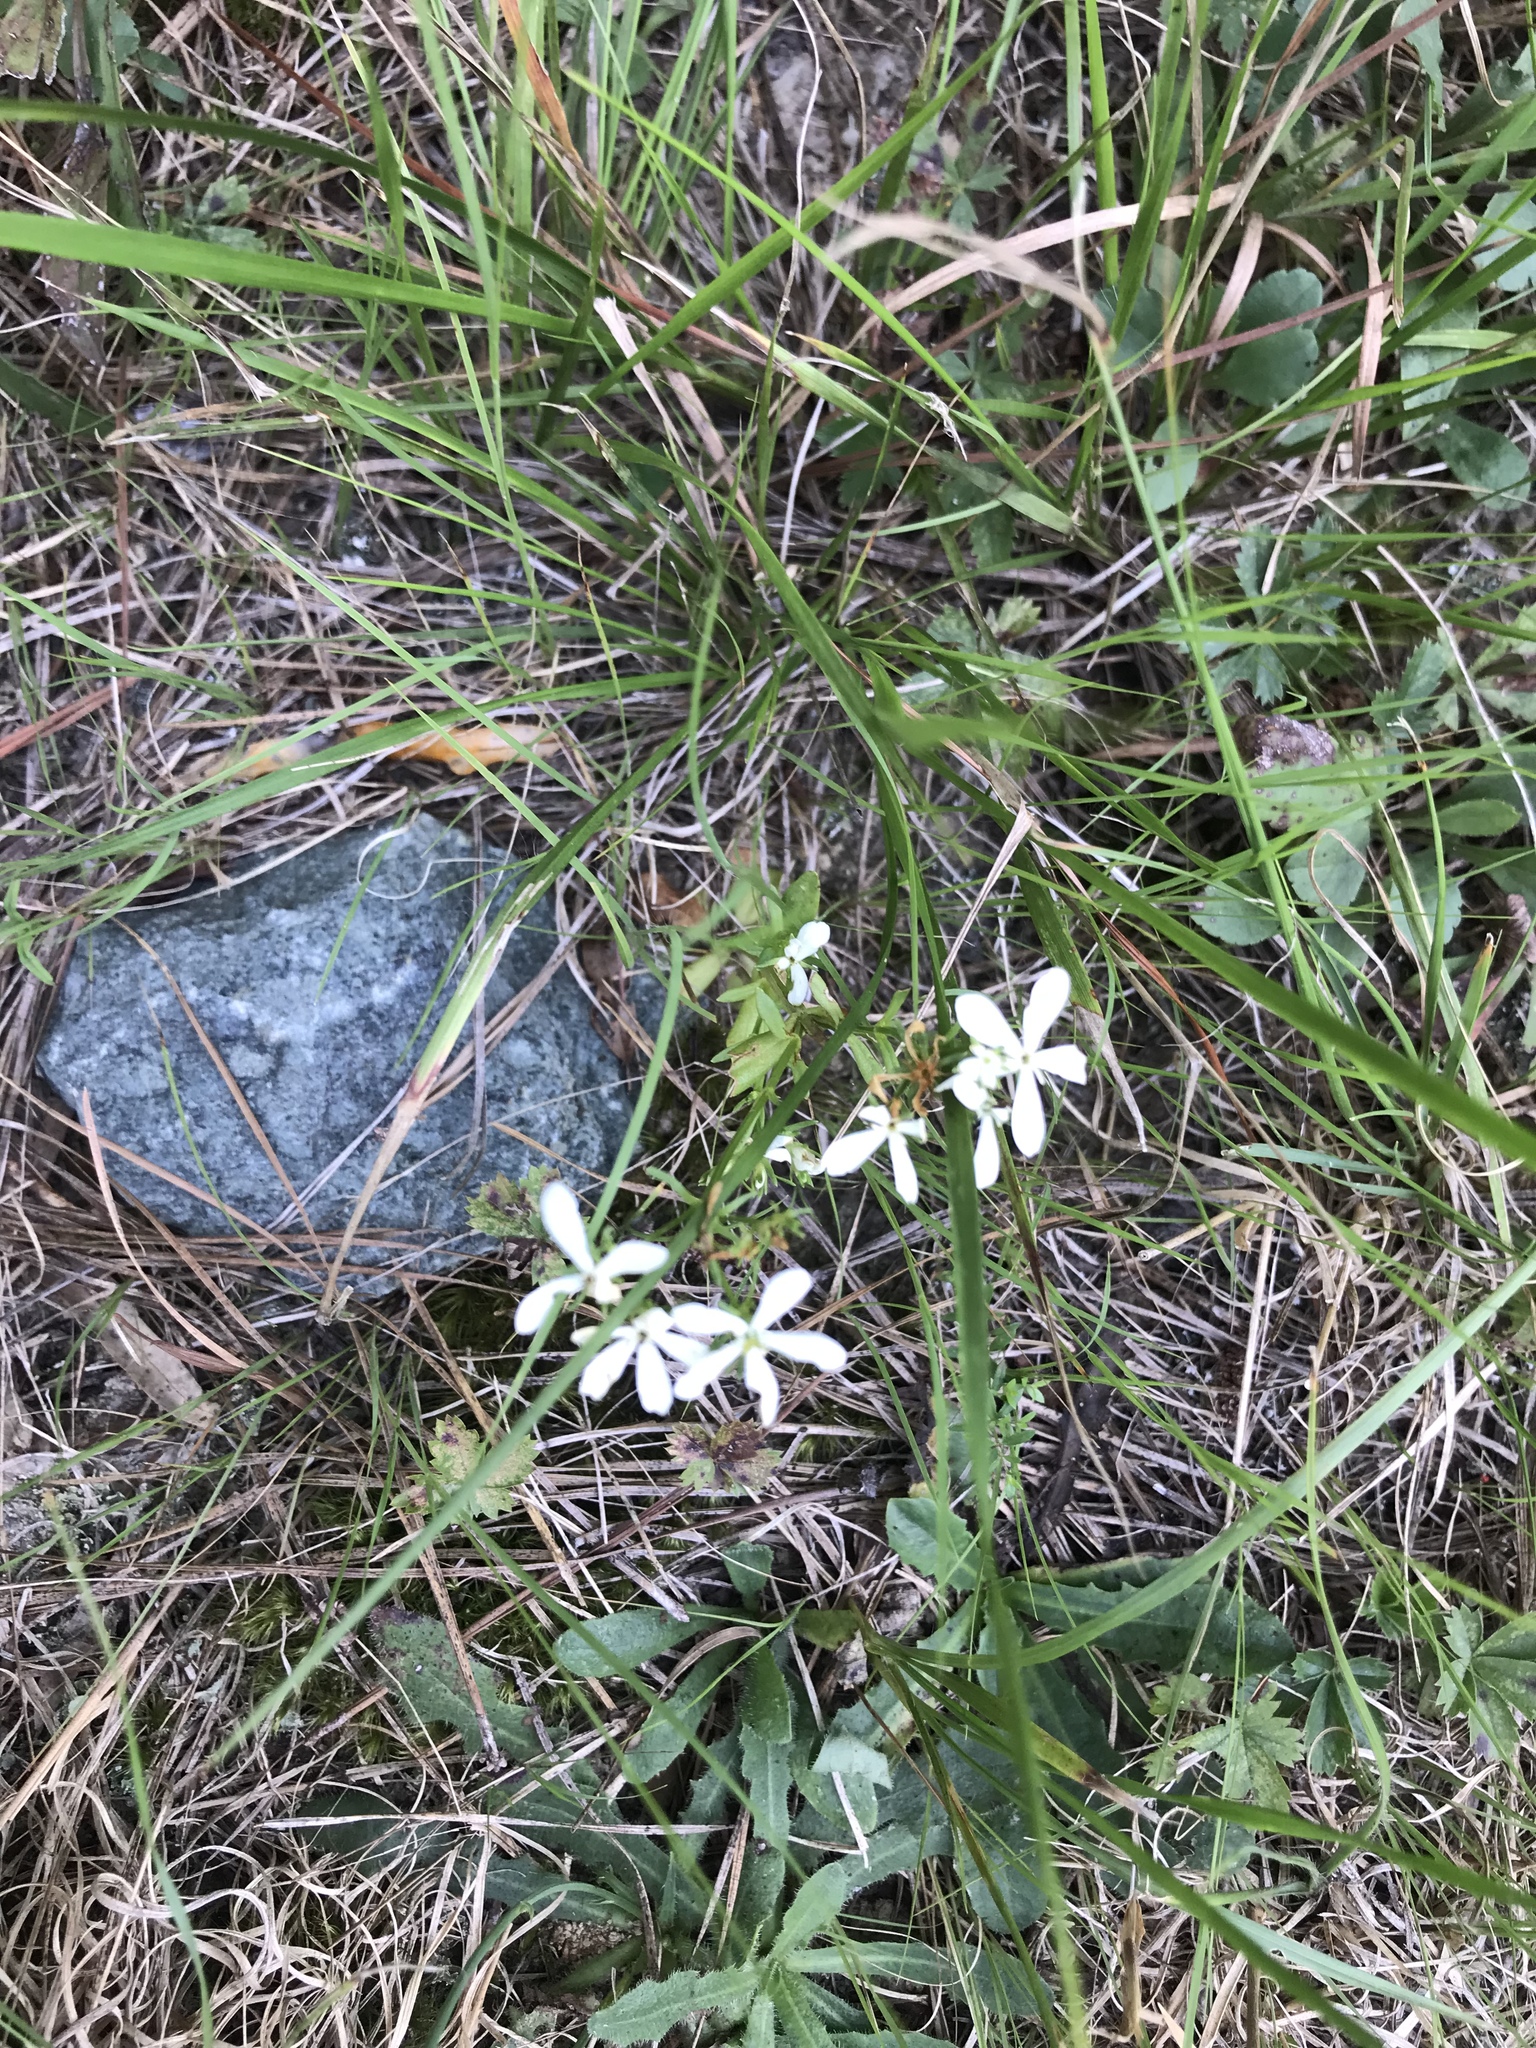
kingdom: Plantae
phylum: Tracheophyta
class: Magnoliopsida
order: Gentianales
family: Gentianaceae
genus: Sabatia
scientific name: Sabatia quadrangula
